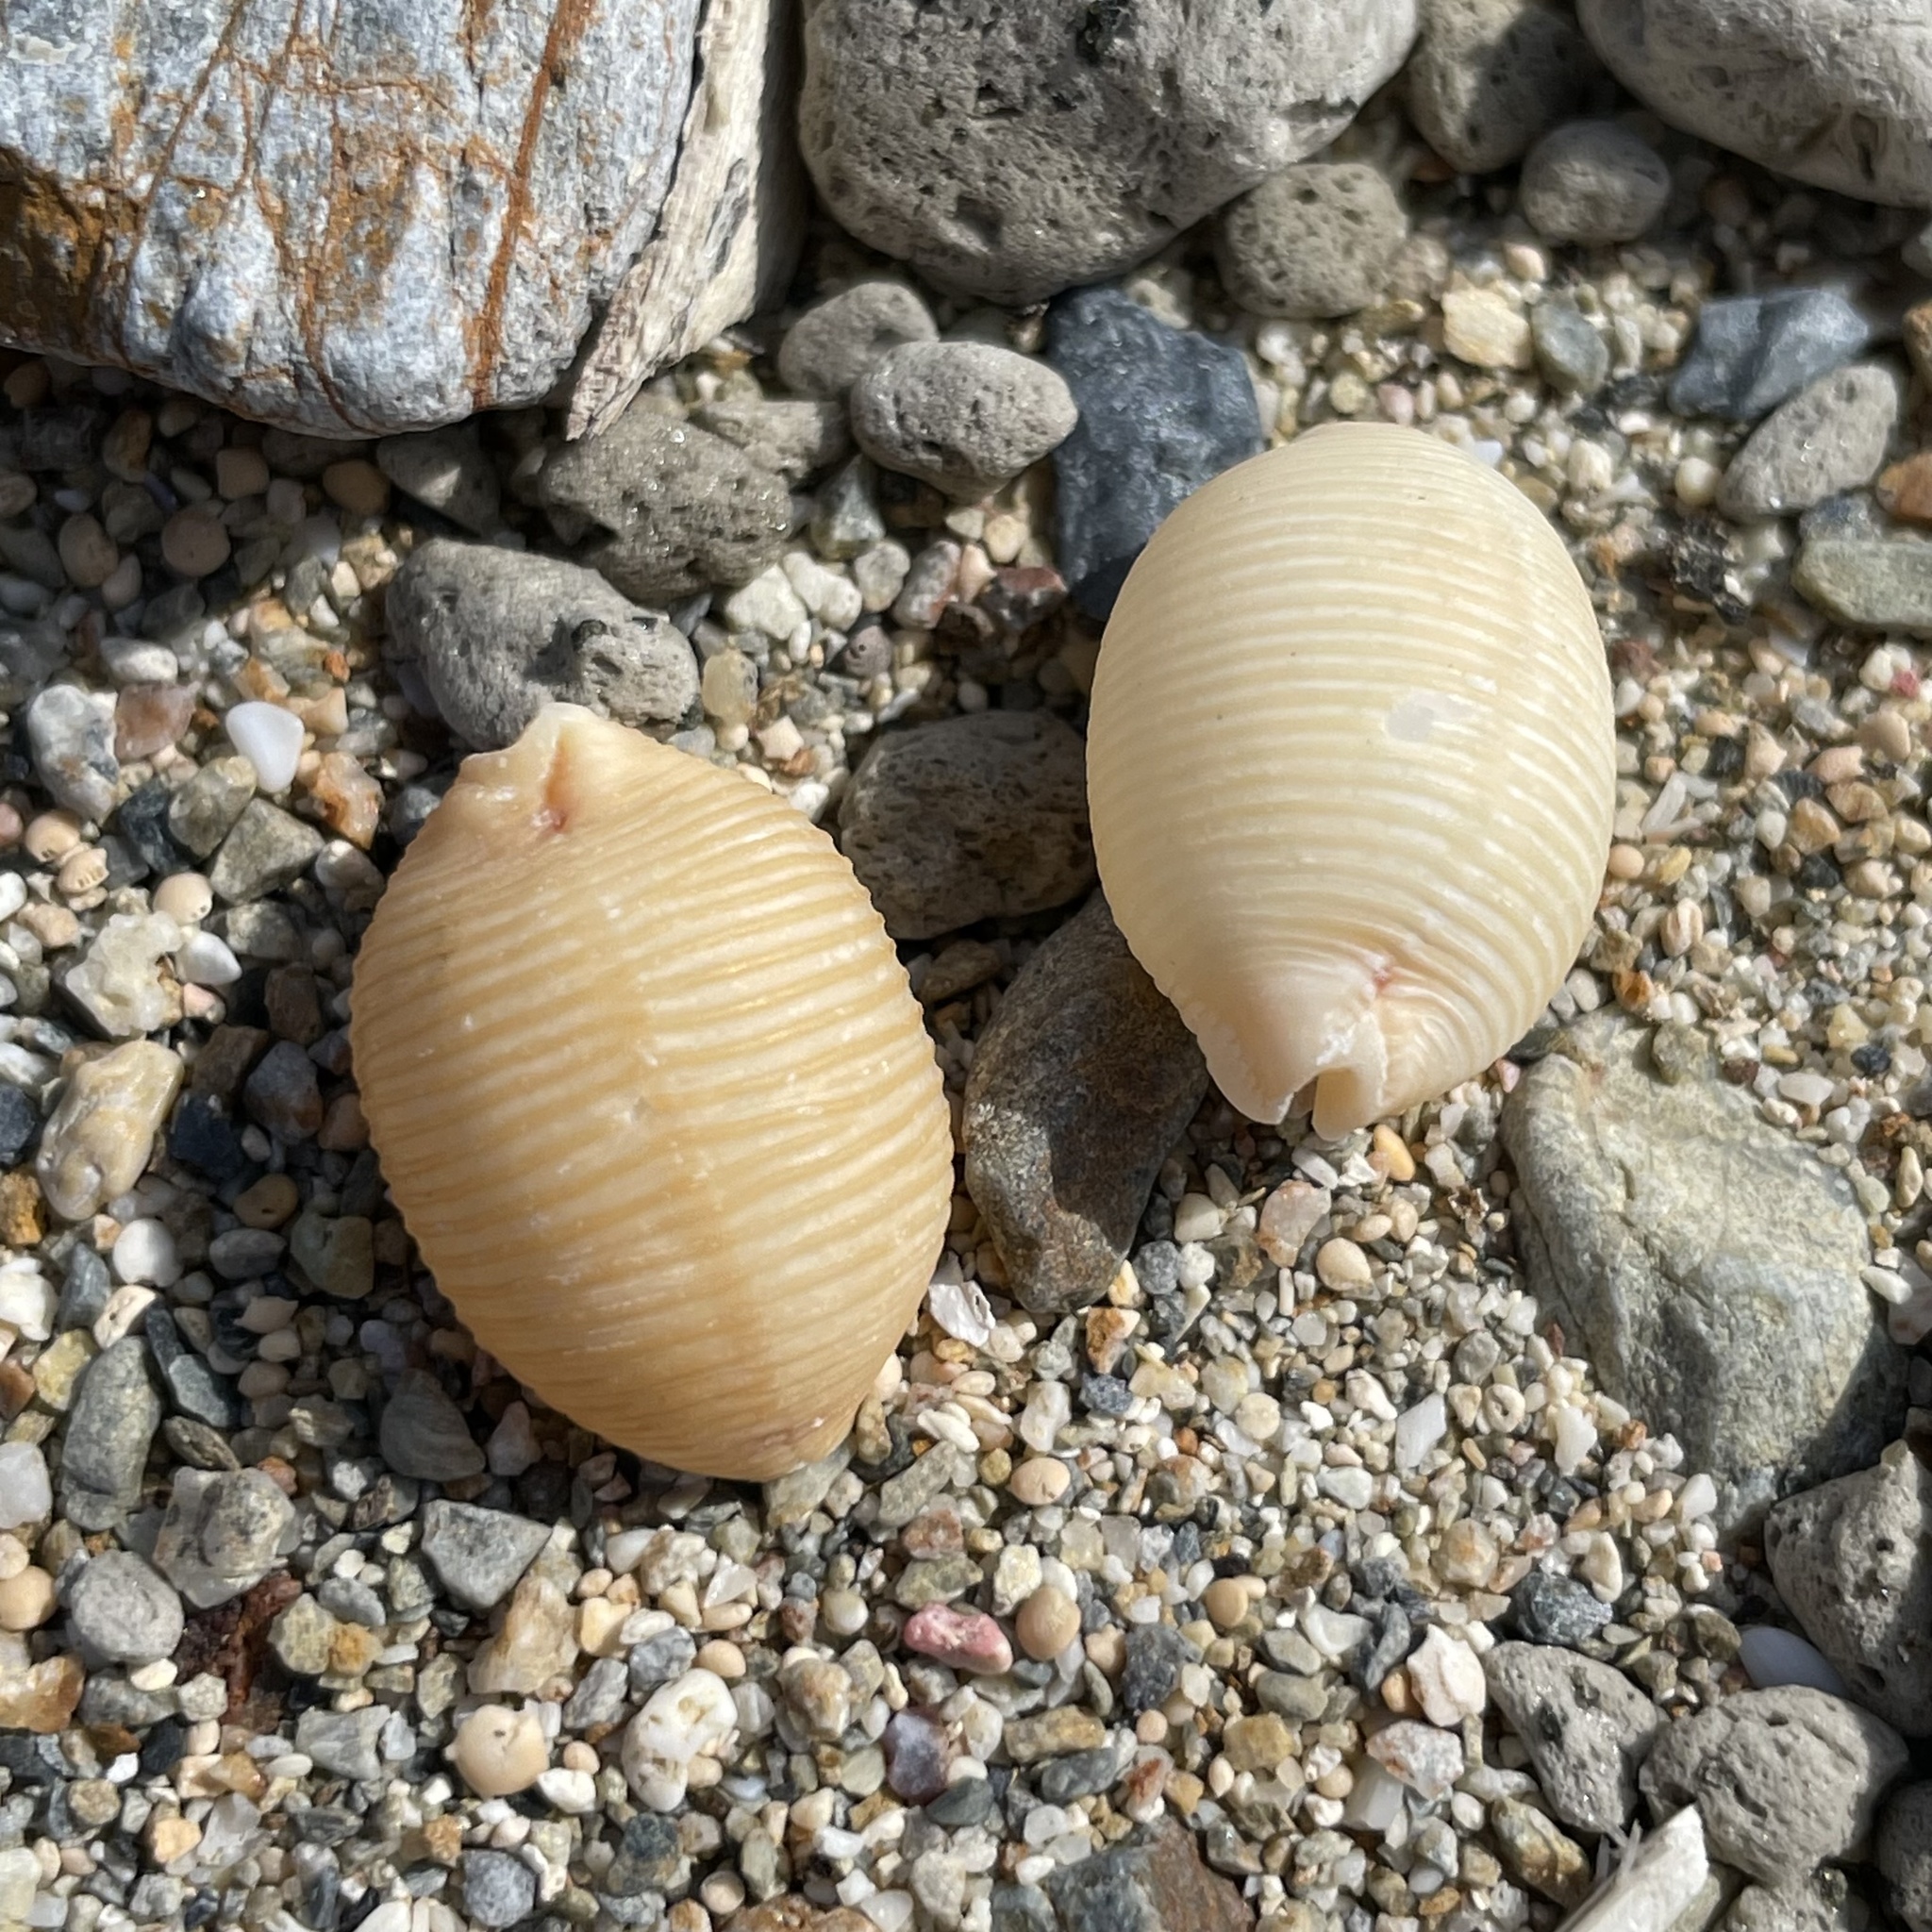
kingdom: Animalia
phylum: Mollusca
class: Gastropoda
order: Littorinimorpha
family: Cypraeidae
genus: Ipsa
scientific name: Ipsa childreni
